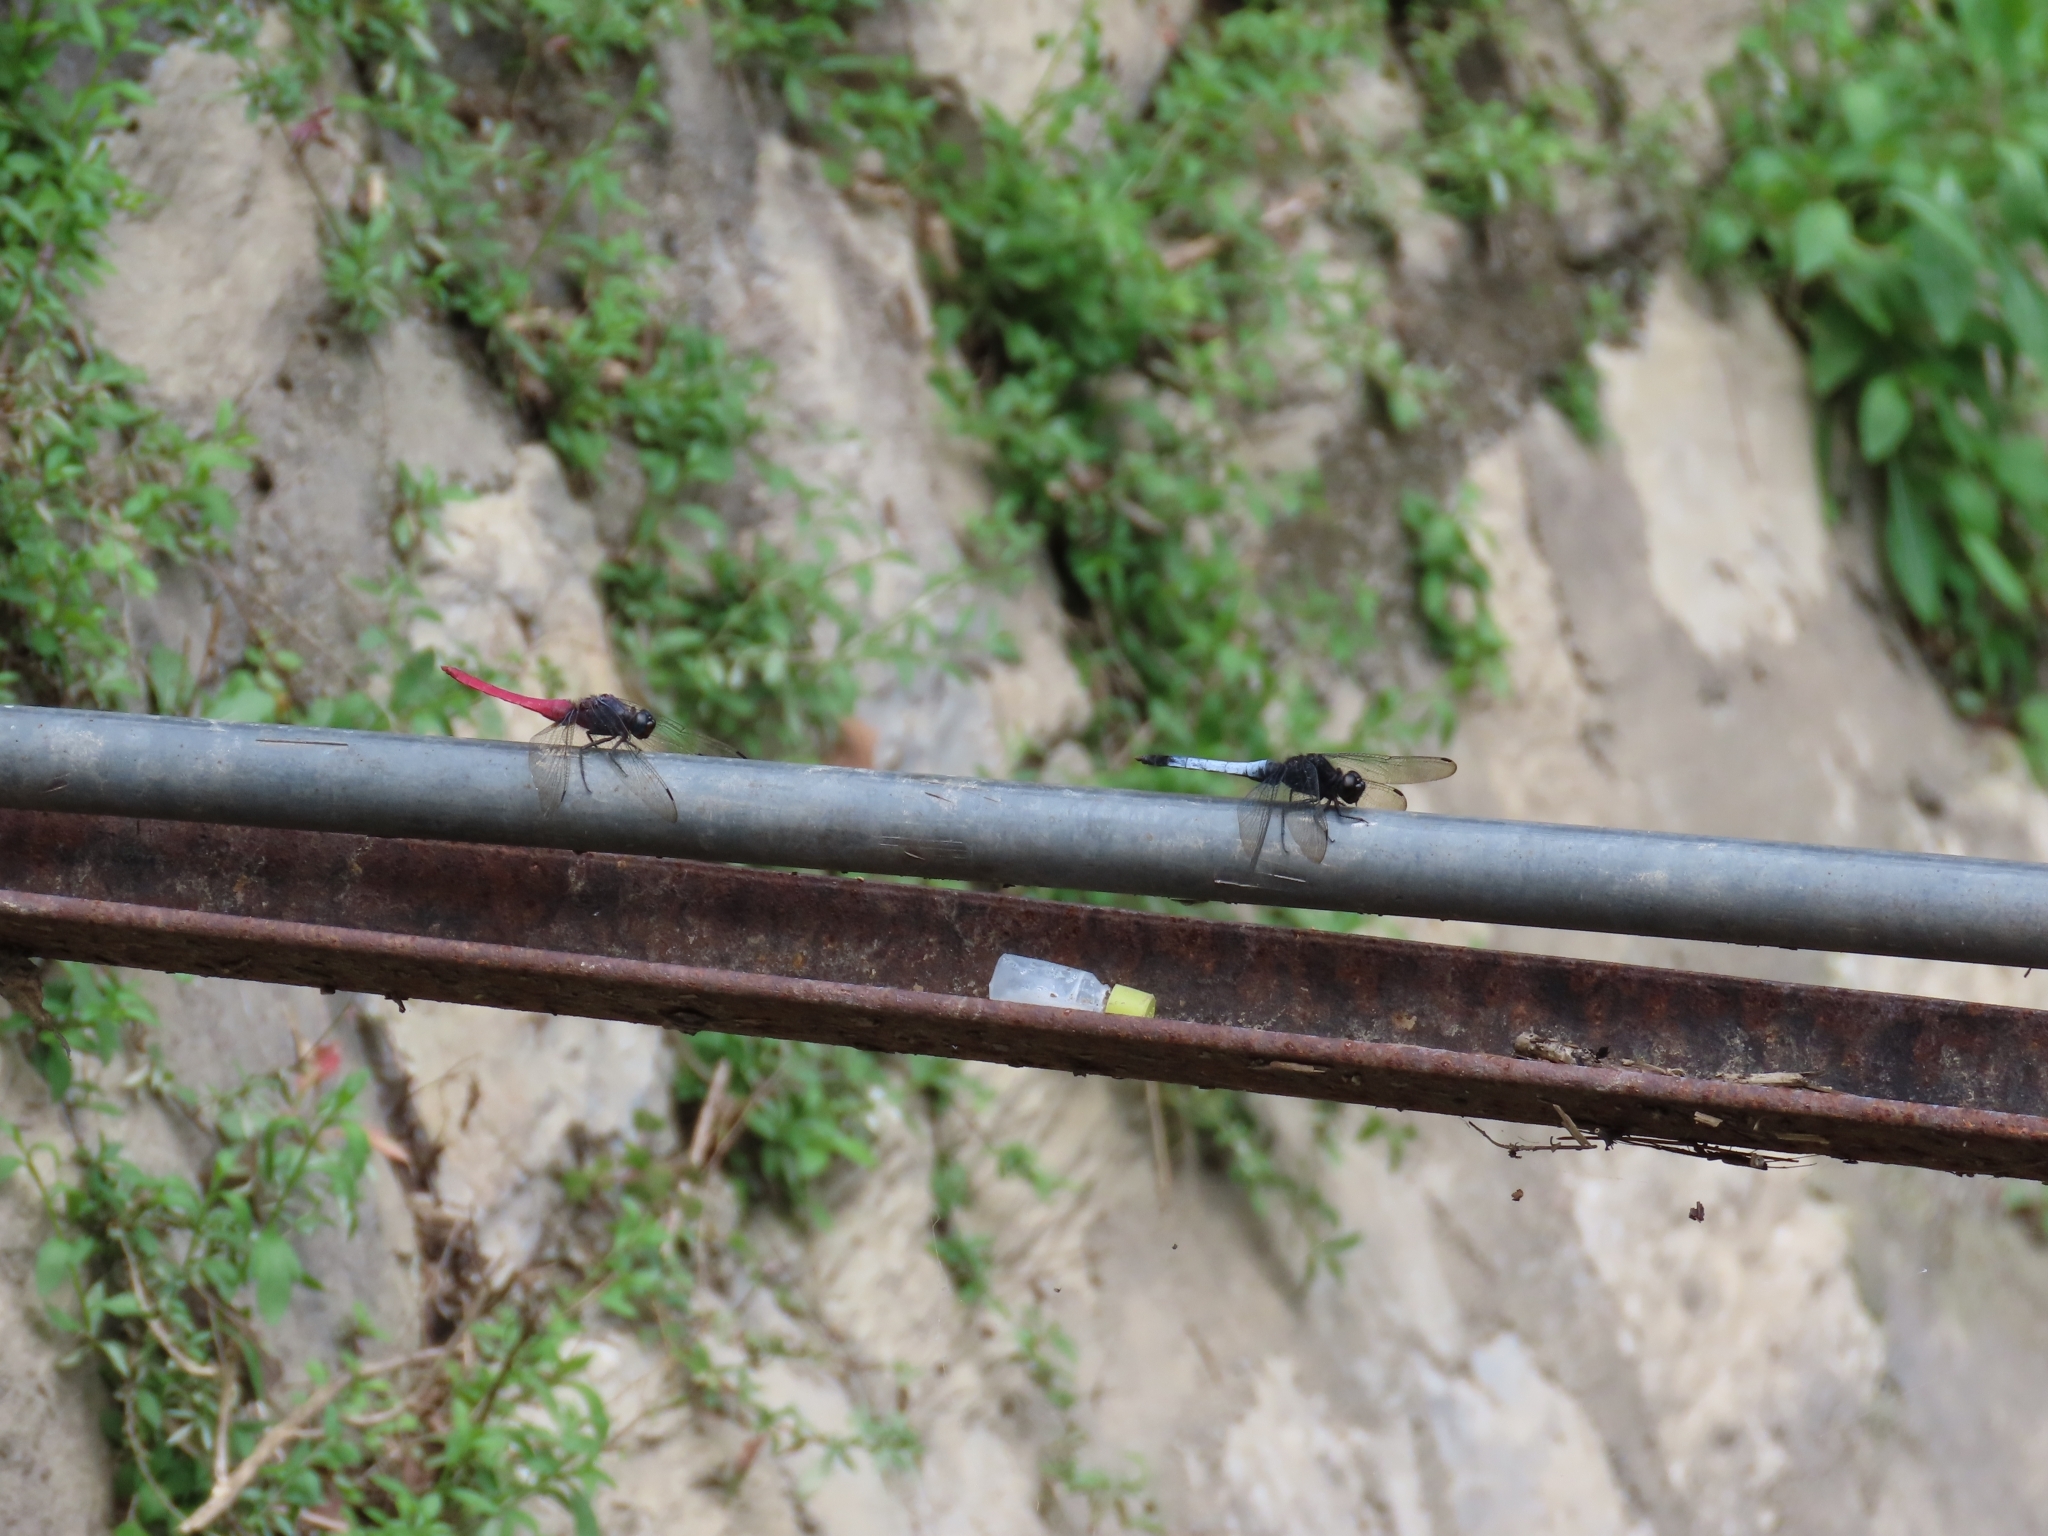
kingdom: Animalia
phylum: Arthropoda
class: Insecta
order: Odonata
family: Libellulidae
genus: Orthetrum
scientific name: Orthetrum triangulare
